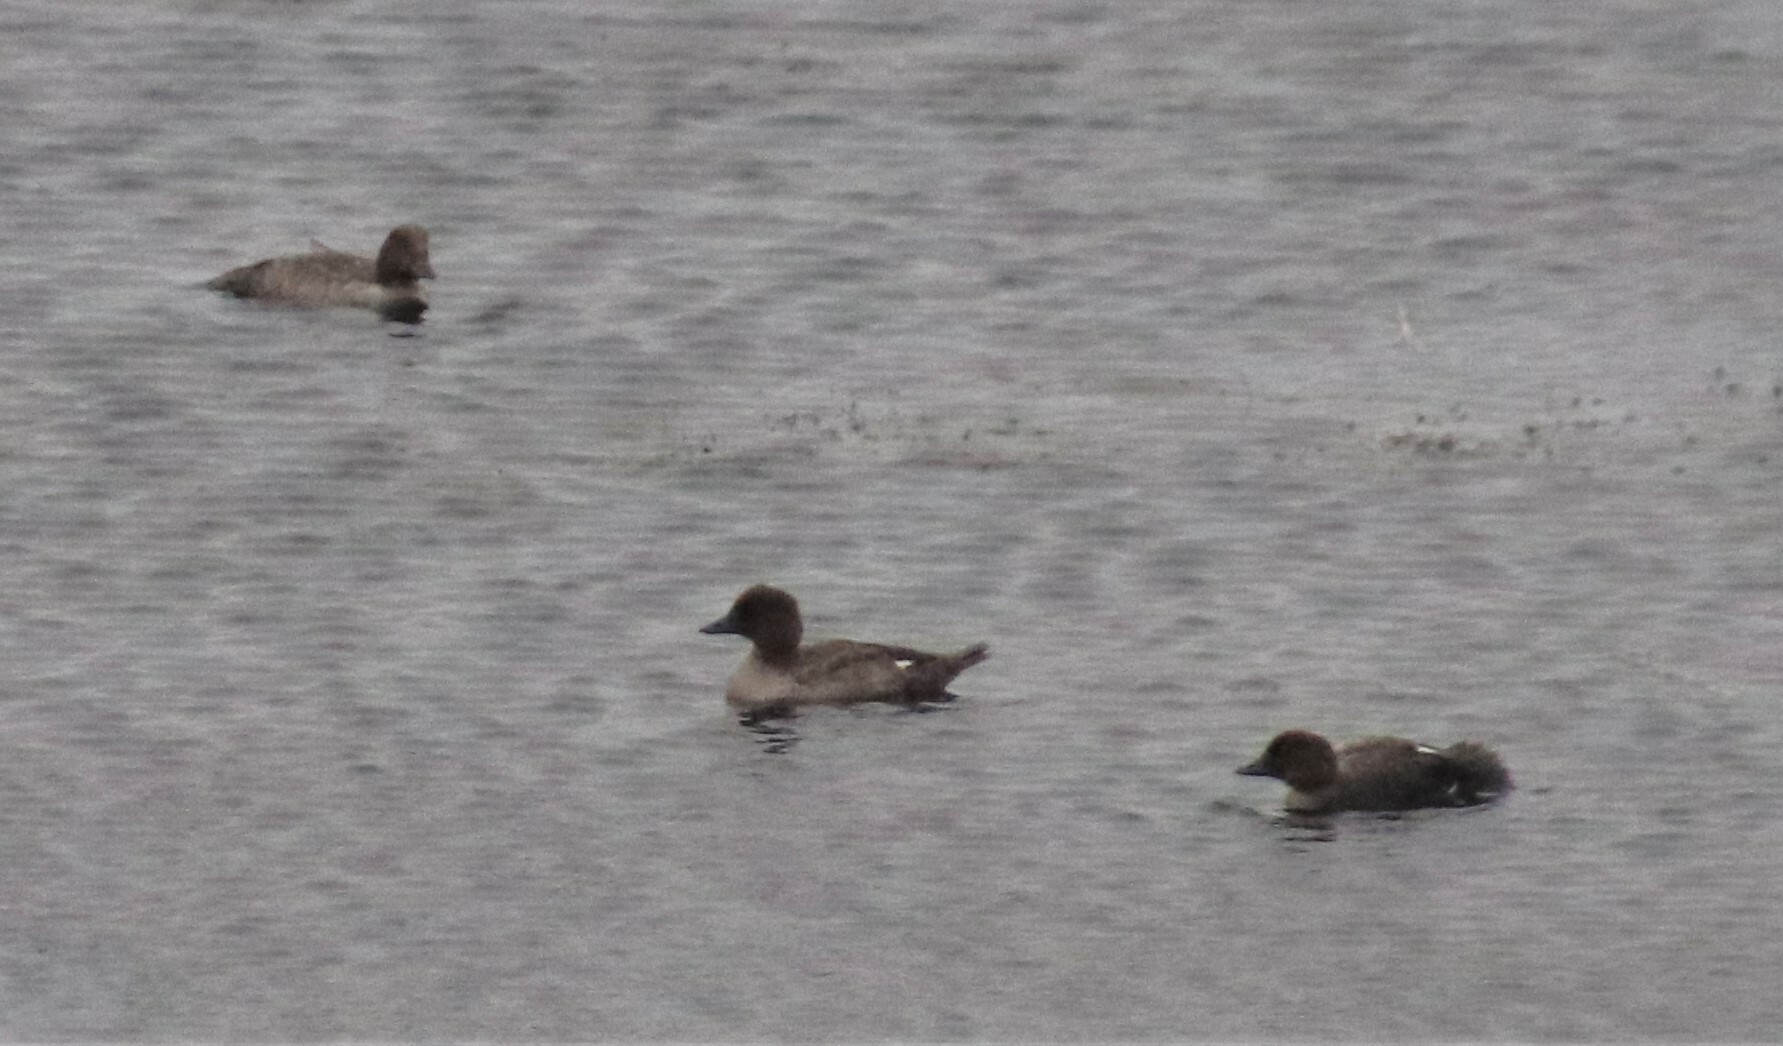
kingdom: Animalia
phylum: Chordata
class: Aves
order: Anseriformes
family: Anatidae
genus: Bucephala
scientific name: Bucephala clangula
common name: Common goldeneye
